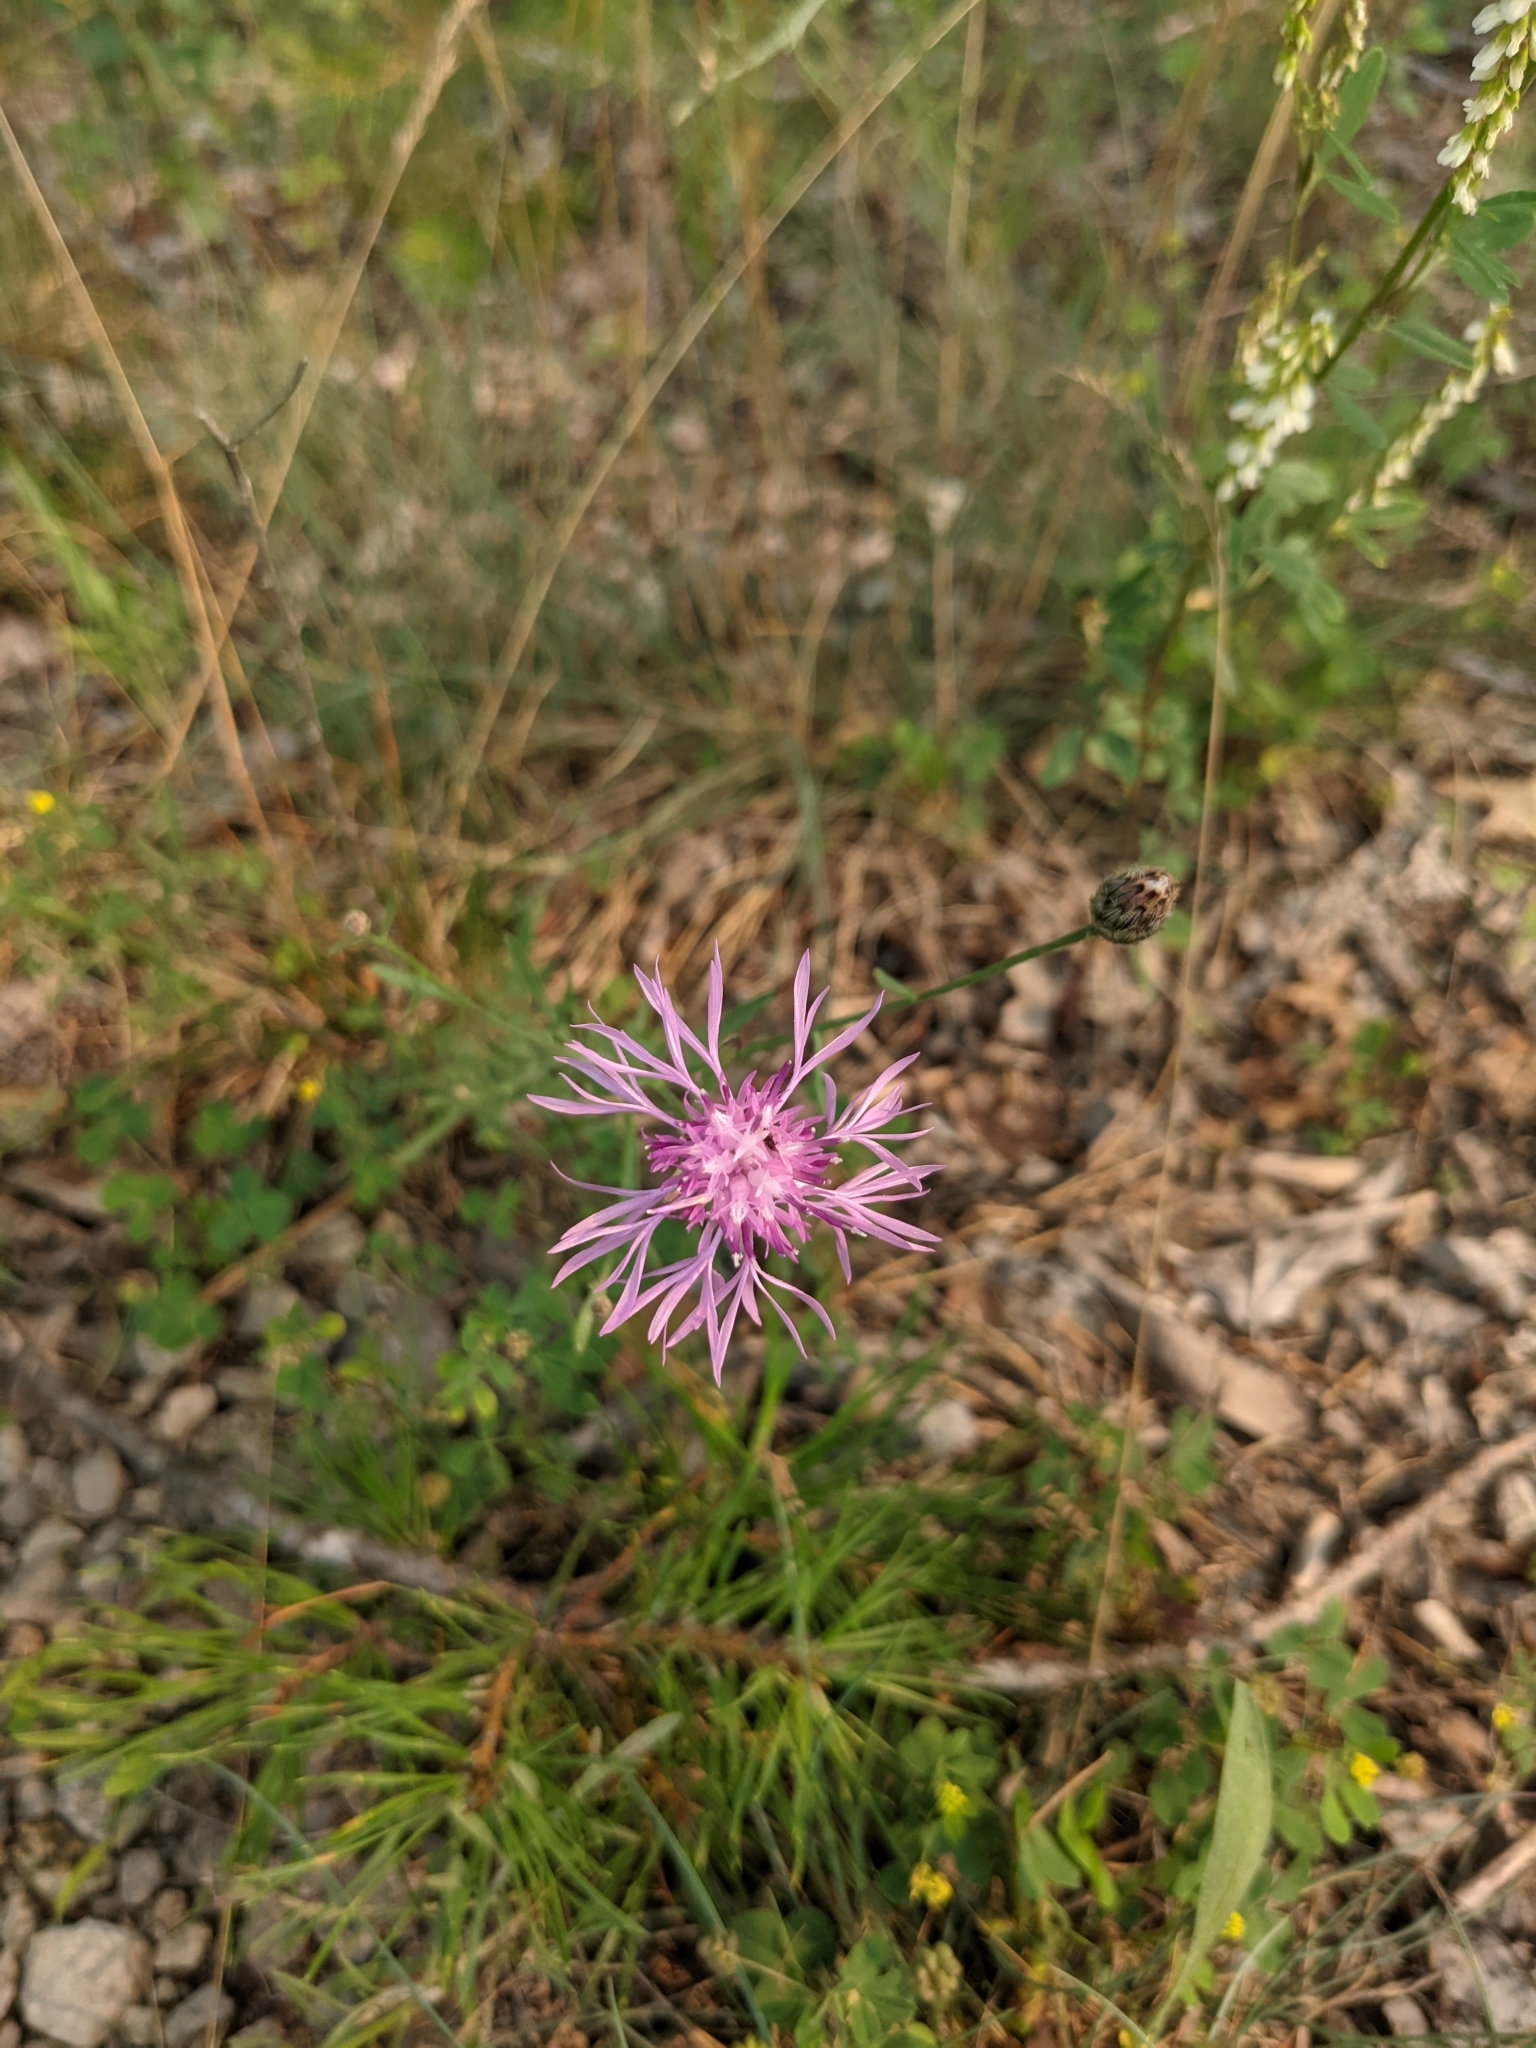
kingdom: Plantae
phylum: Tracheophyta
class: Magnoliopsida
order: Asterales
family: Asteraceae
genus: Centaurea
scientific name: Centaurea stoebe
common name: Spotted knapweed
